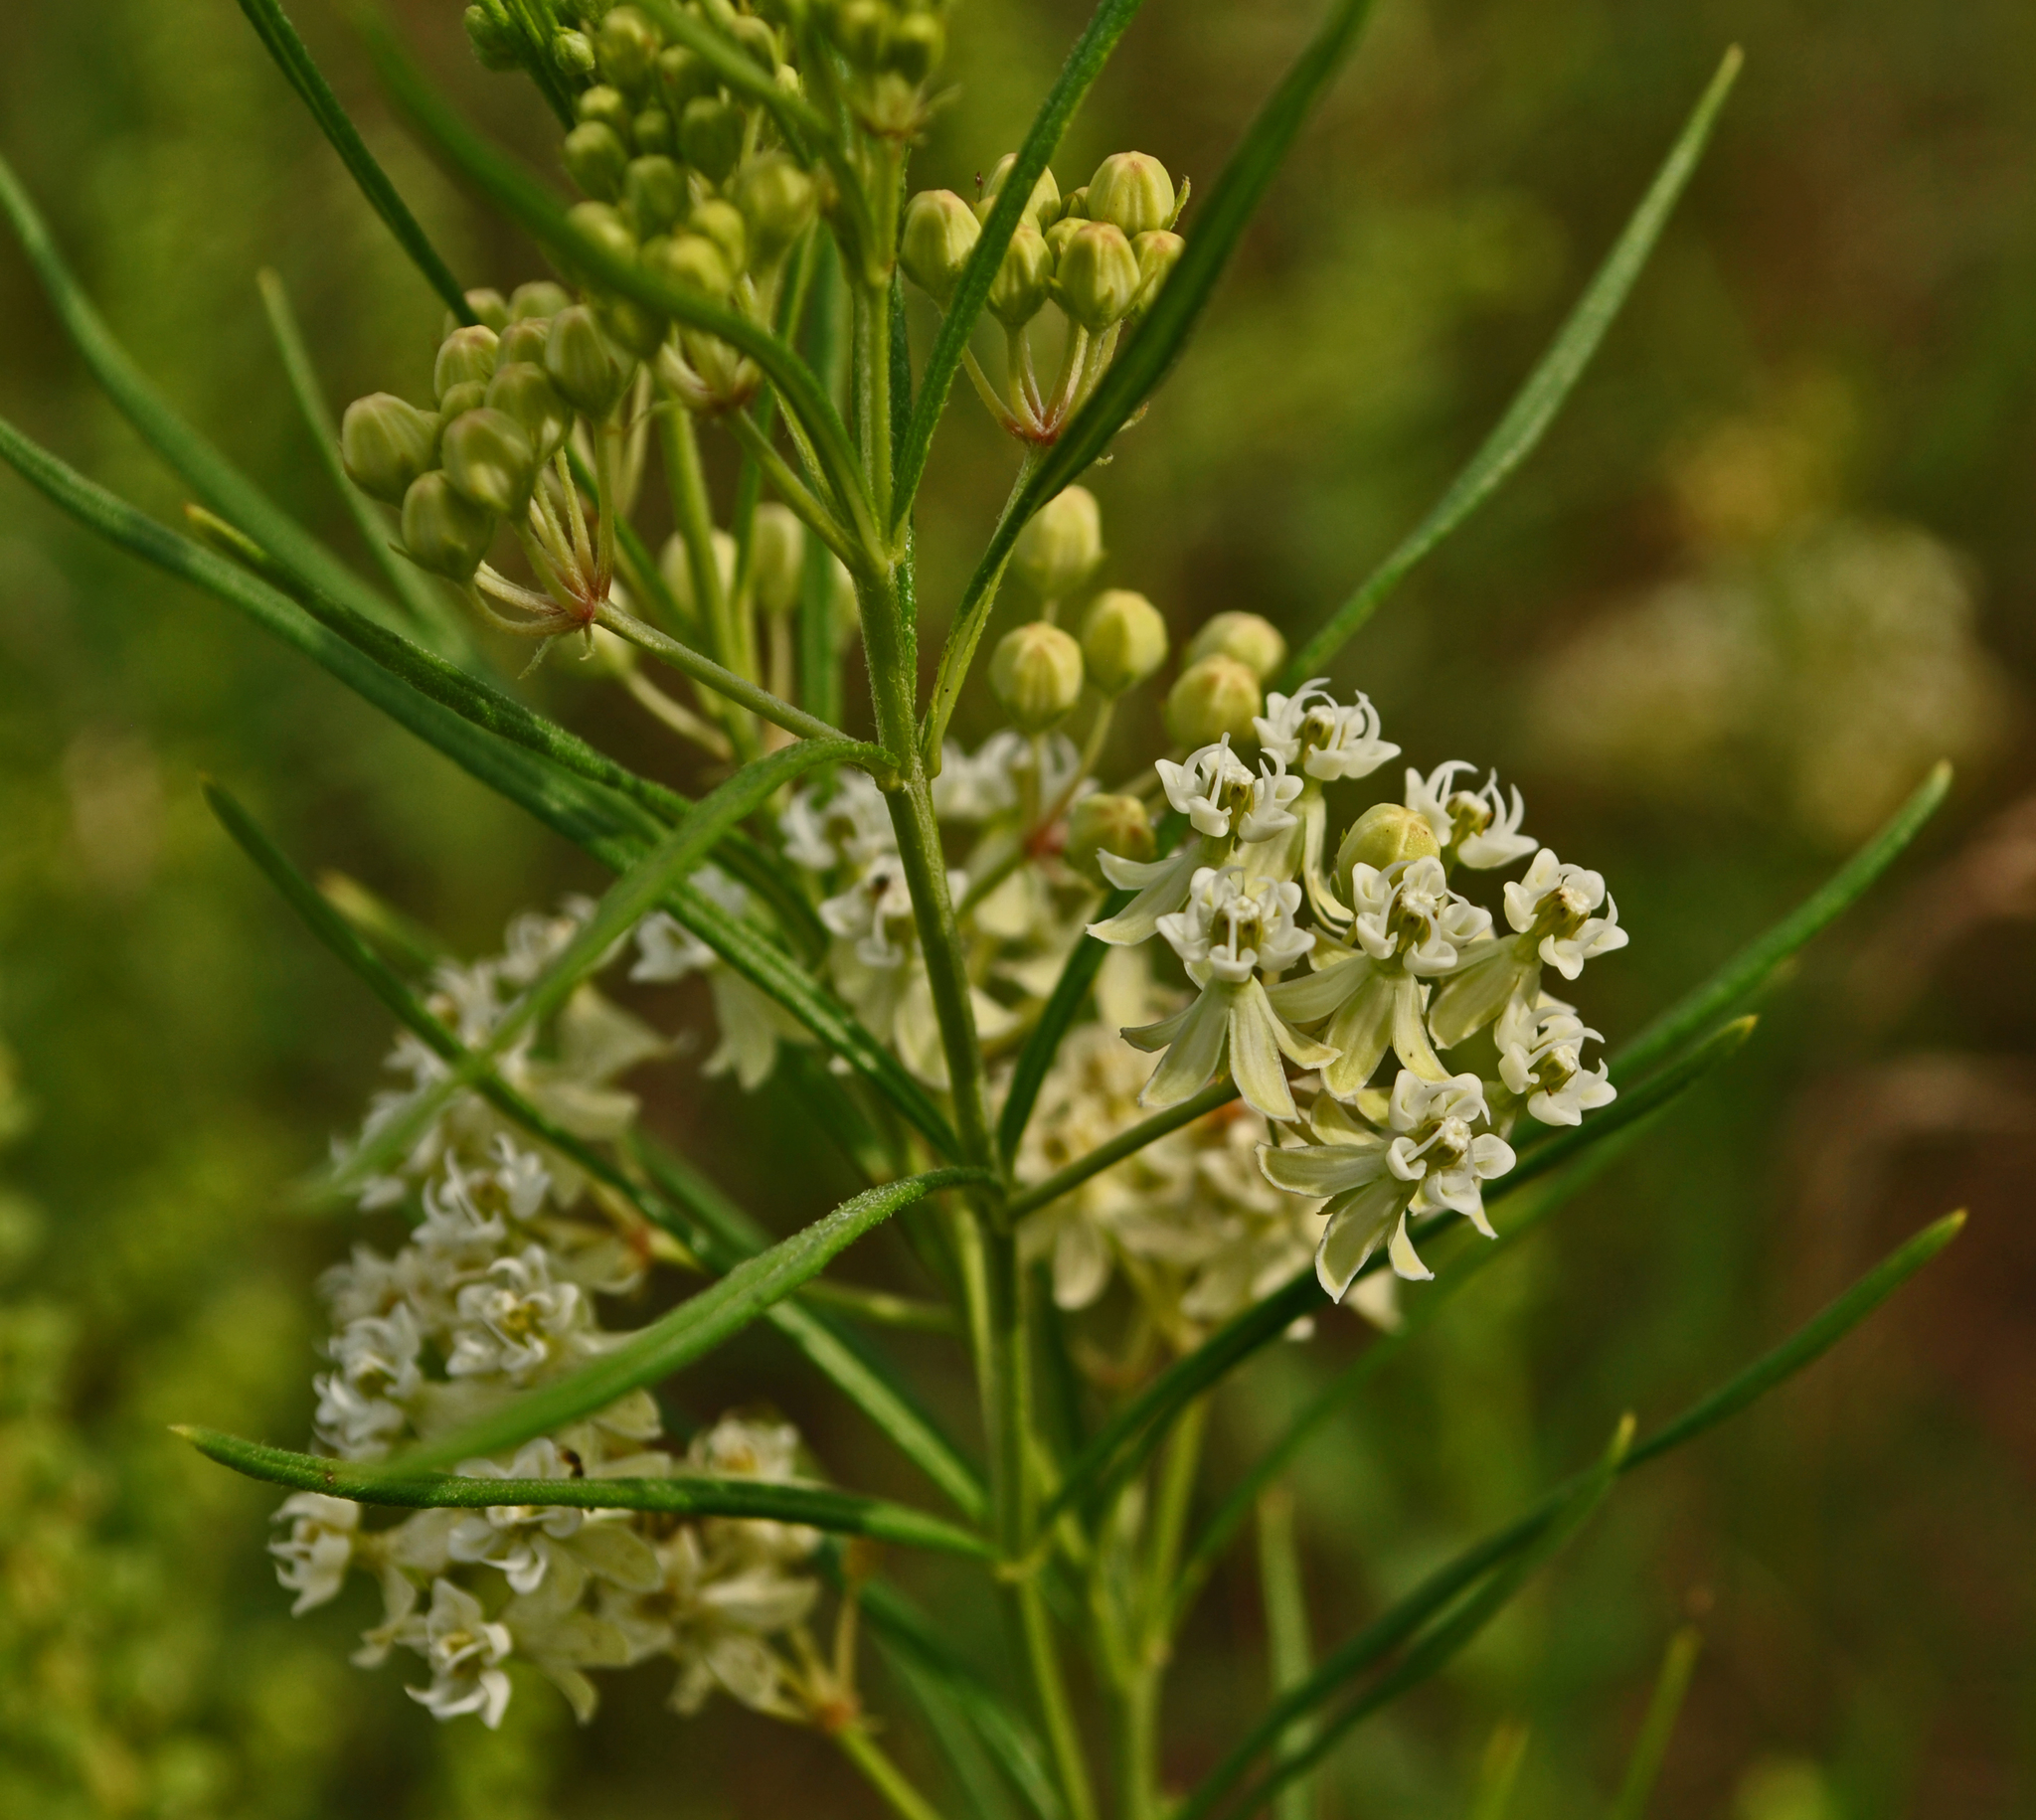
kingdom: Plantae
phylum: Tracheophyta
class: Magnoliopsida
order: Gentianales
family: Apocynaceae
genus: Asclepias
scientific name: Asclepias verticillata
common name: Eastern whorled milkweed
